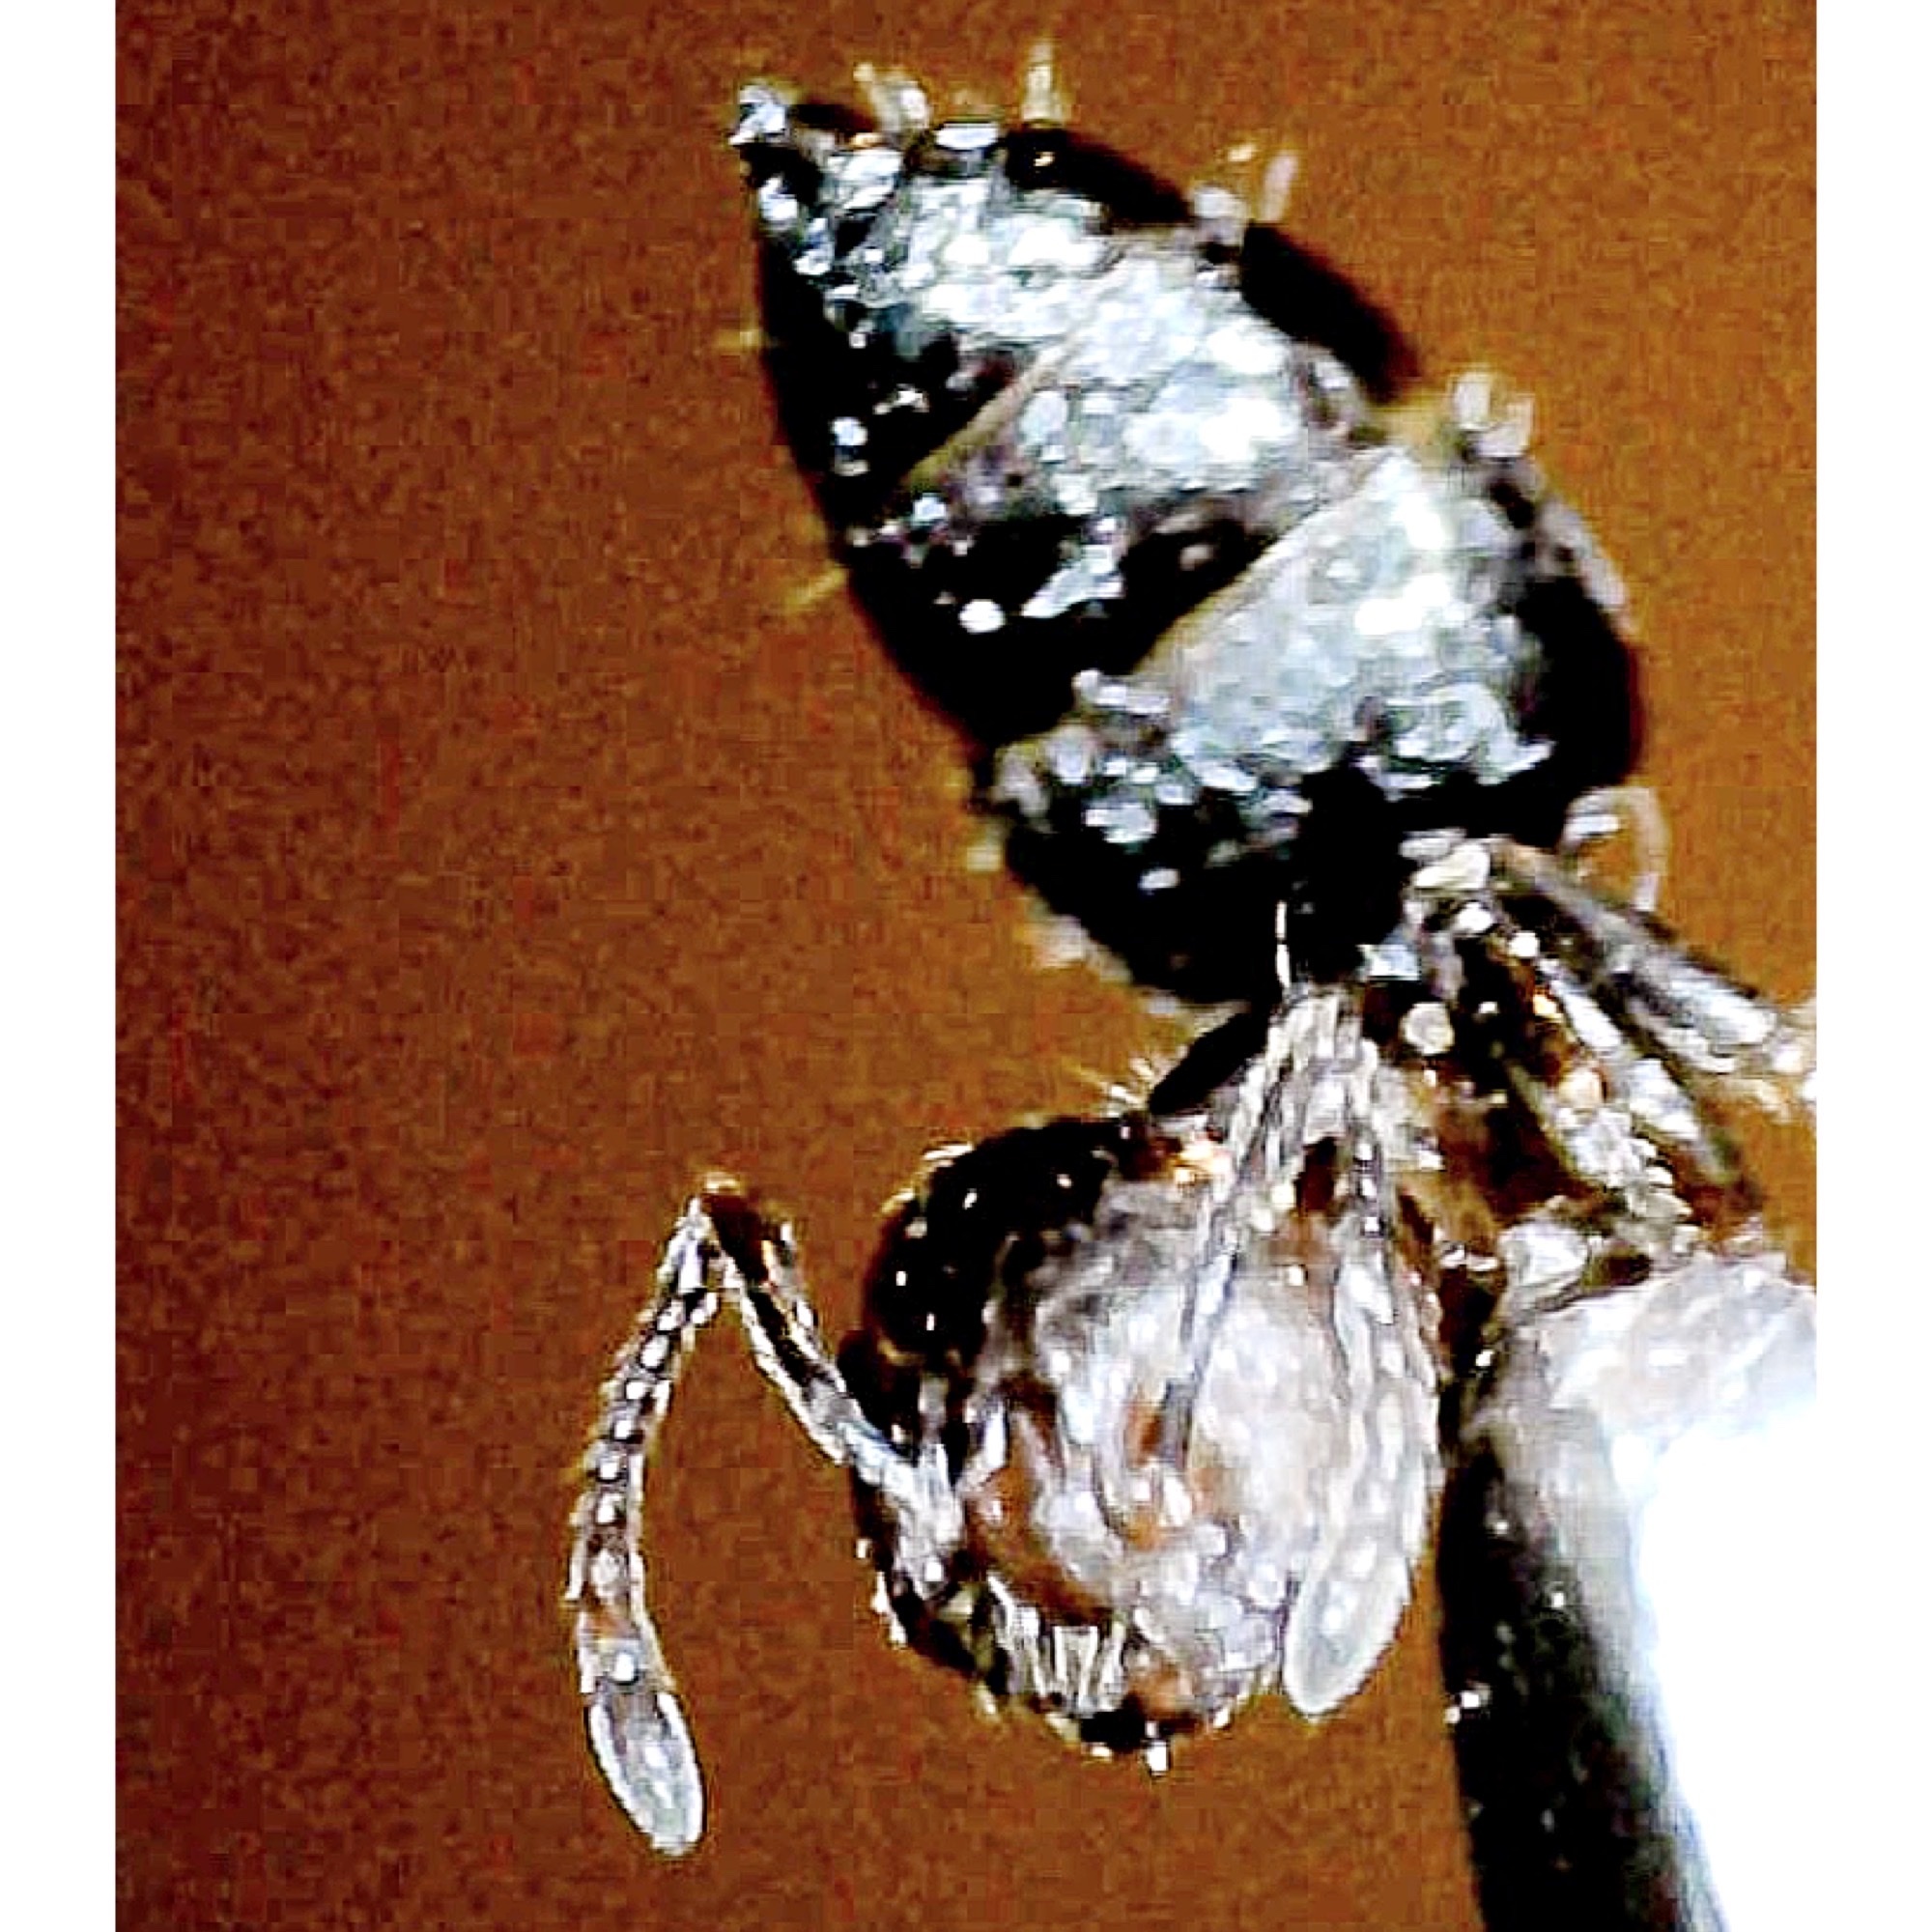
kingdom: Animalia
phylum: Arthropoda
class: Insecta
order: Hymenoptera
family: Formicidae
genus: Crematogaster
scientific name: Crematogaster pilosa
